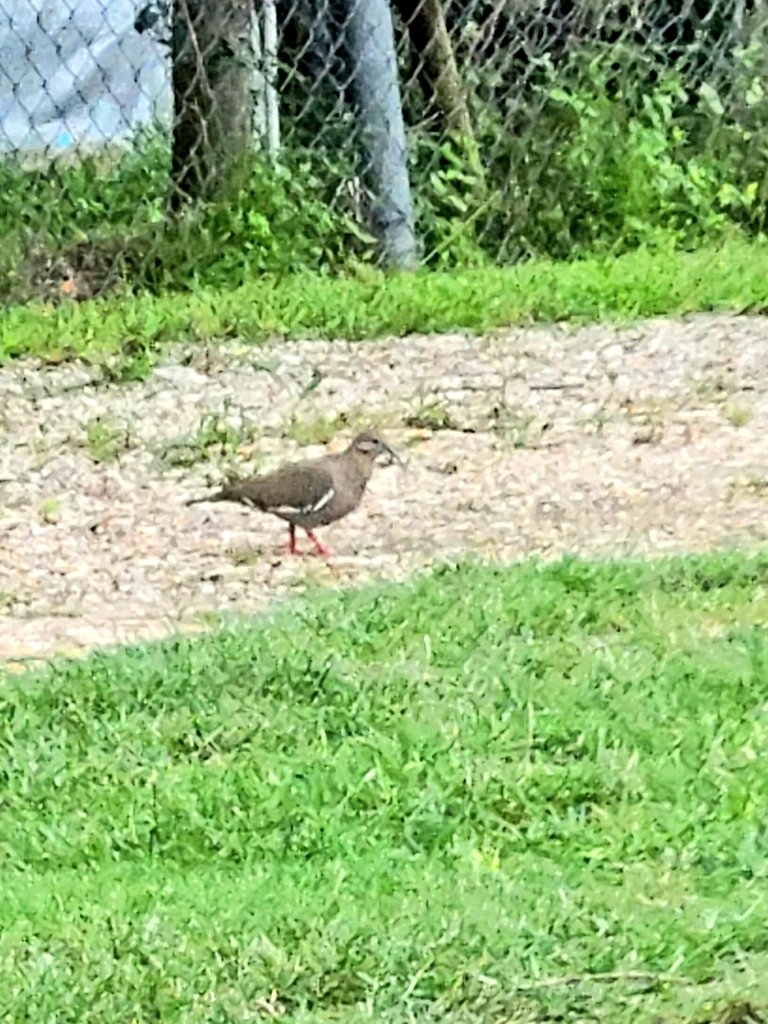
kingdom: Animalia
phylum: Chordata
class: Aves
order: Columbiformes
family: Columbidae
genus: Zenaida
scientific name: Zenaida asiatica
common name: White-winged dove
